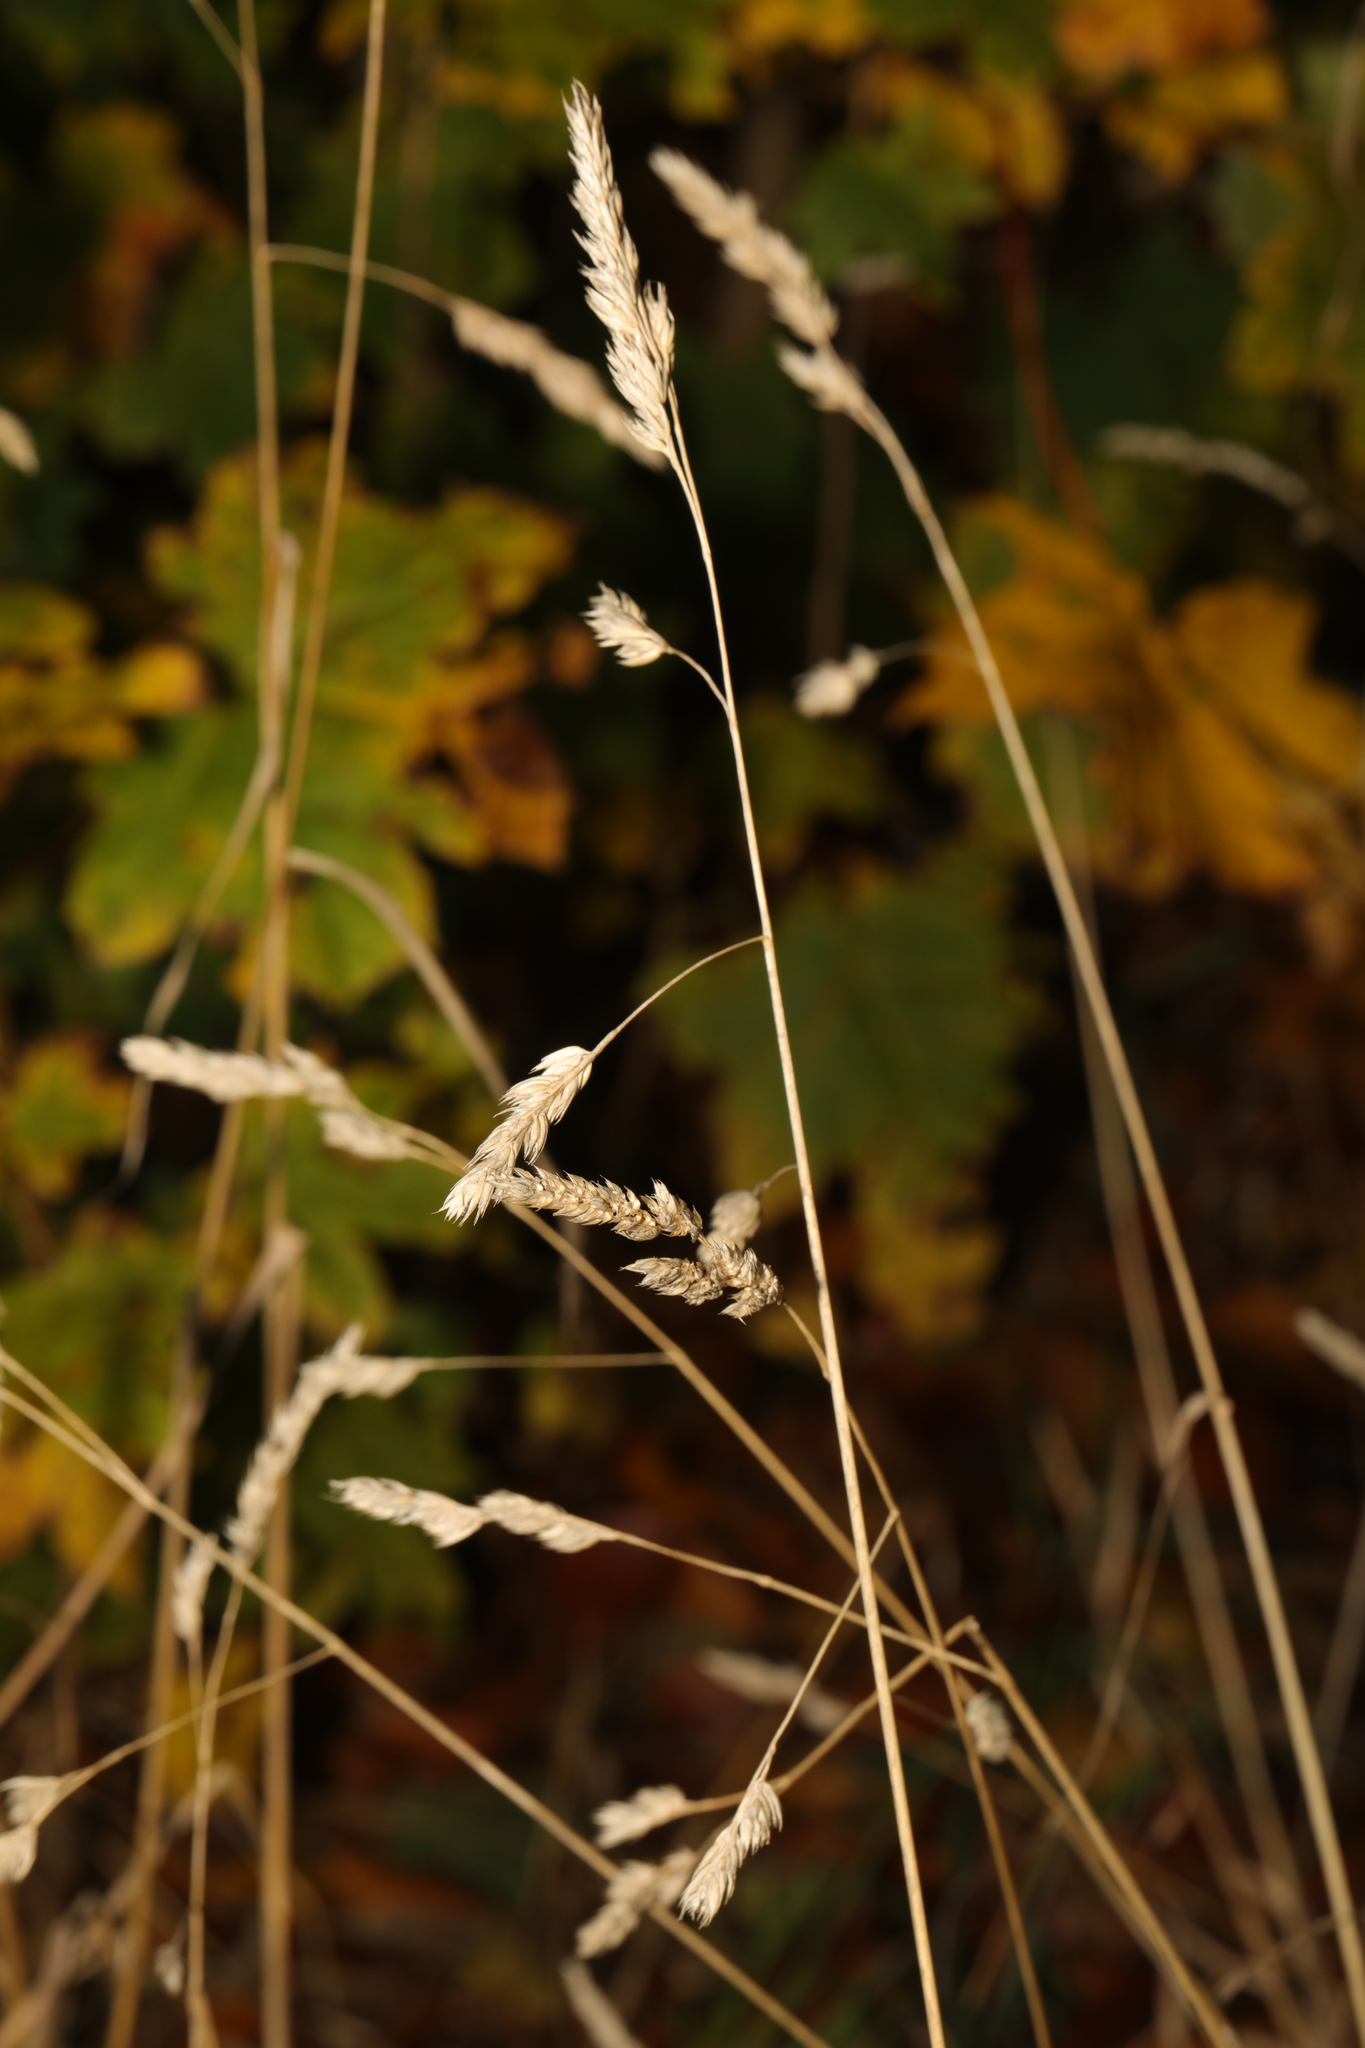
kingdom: Plantae
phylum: Tracheophyta
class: Liliopsida
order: Poales
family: Poaceae
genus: Dactylis
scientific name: Dactylis glomerata
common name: Orchardgrass
